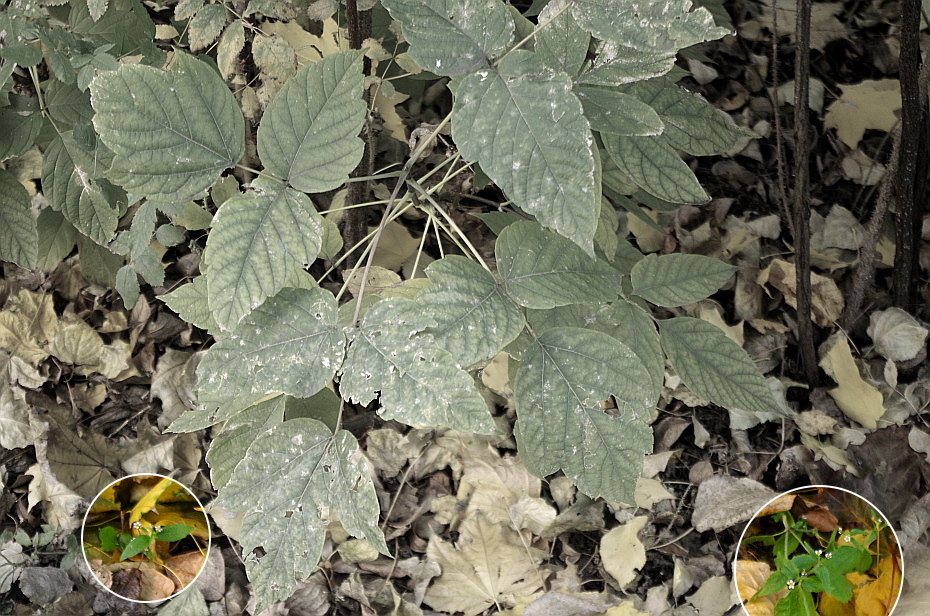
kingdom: Plantae
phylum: Tracheophyta
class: Magnoliopsida
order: Asterales
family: Asteraceae
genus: Galinsoga
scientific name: Galinsoga quadriradiata
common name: Shaggy soldier
